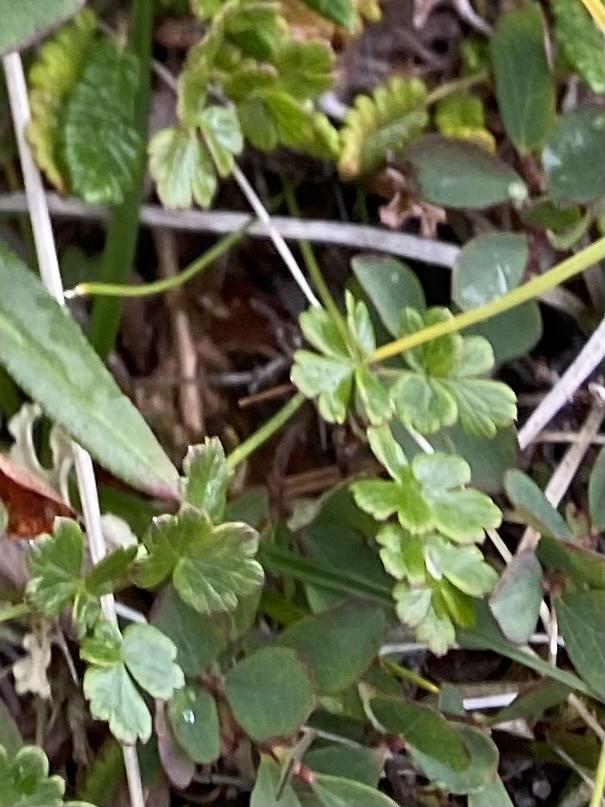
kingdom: Plantae
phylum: Tracheophyta
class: Magnoliopsida
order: Ranunculales
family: Ranunculaceae
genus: Thalictrum
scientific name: Thalictrum alpinum
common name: Alpine meadow-rue
